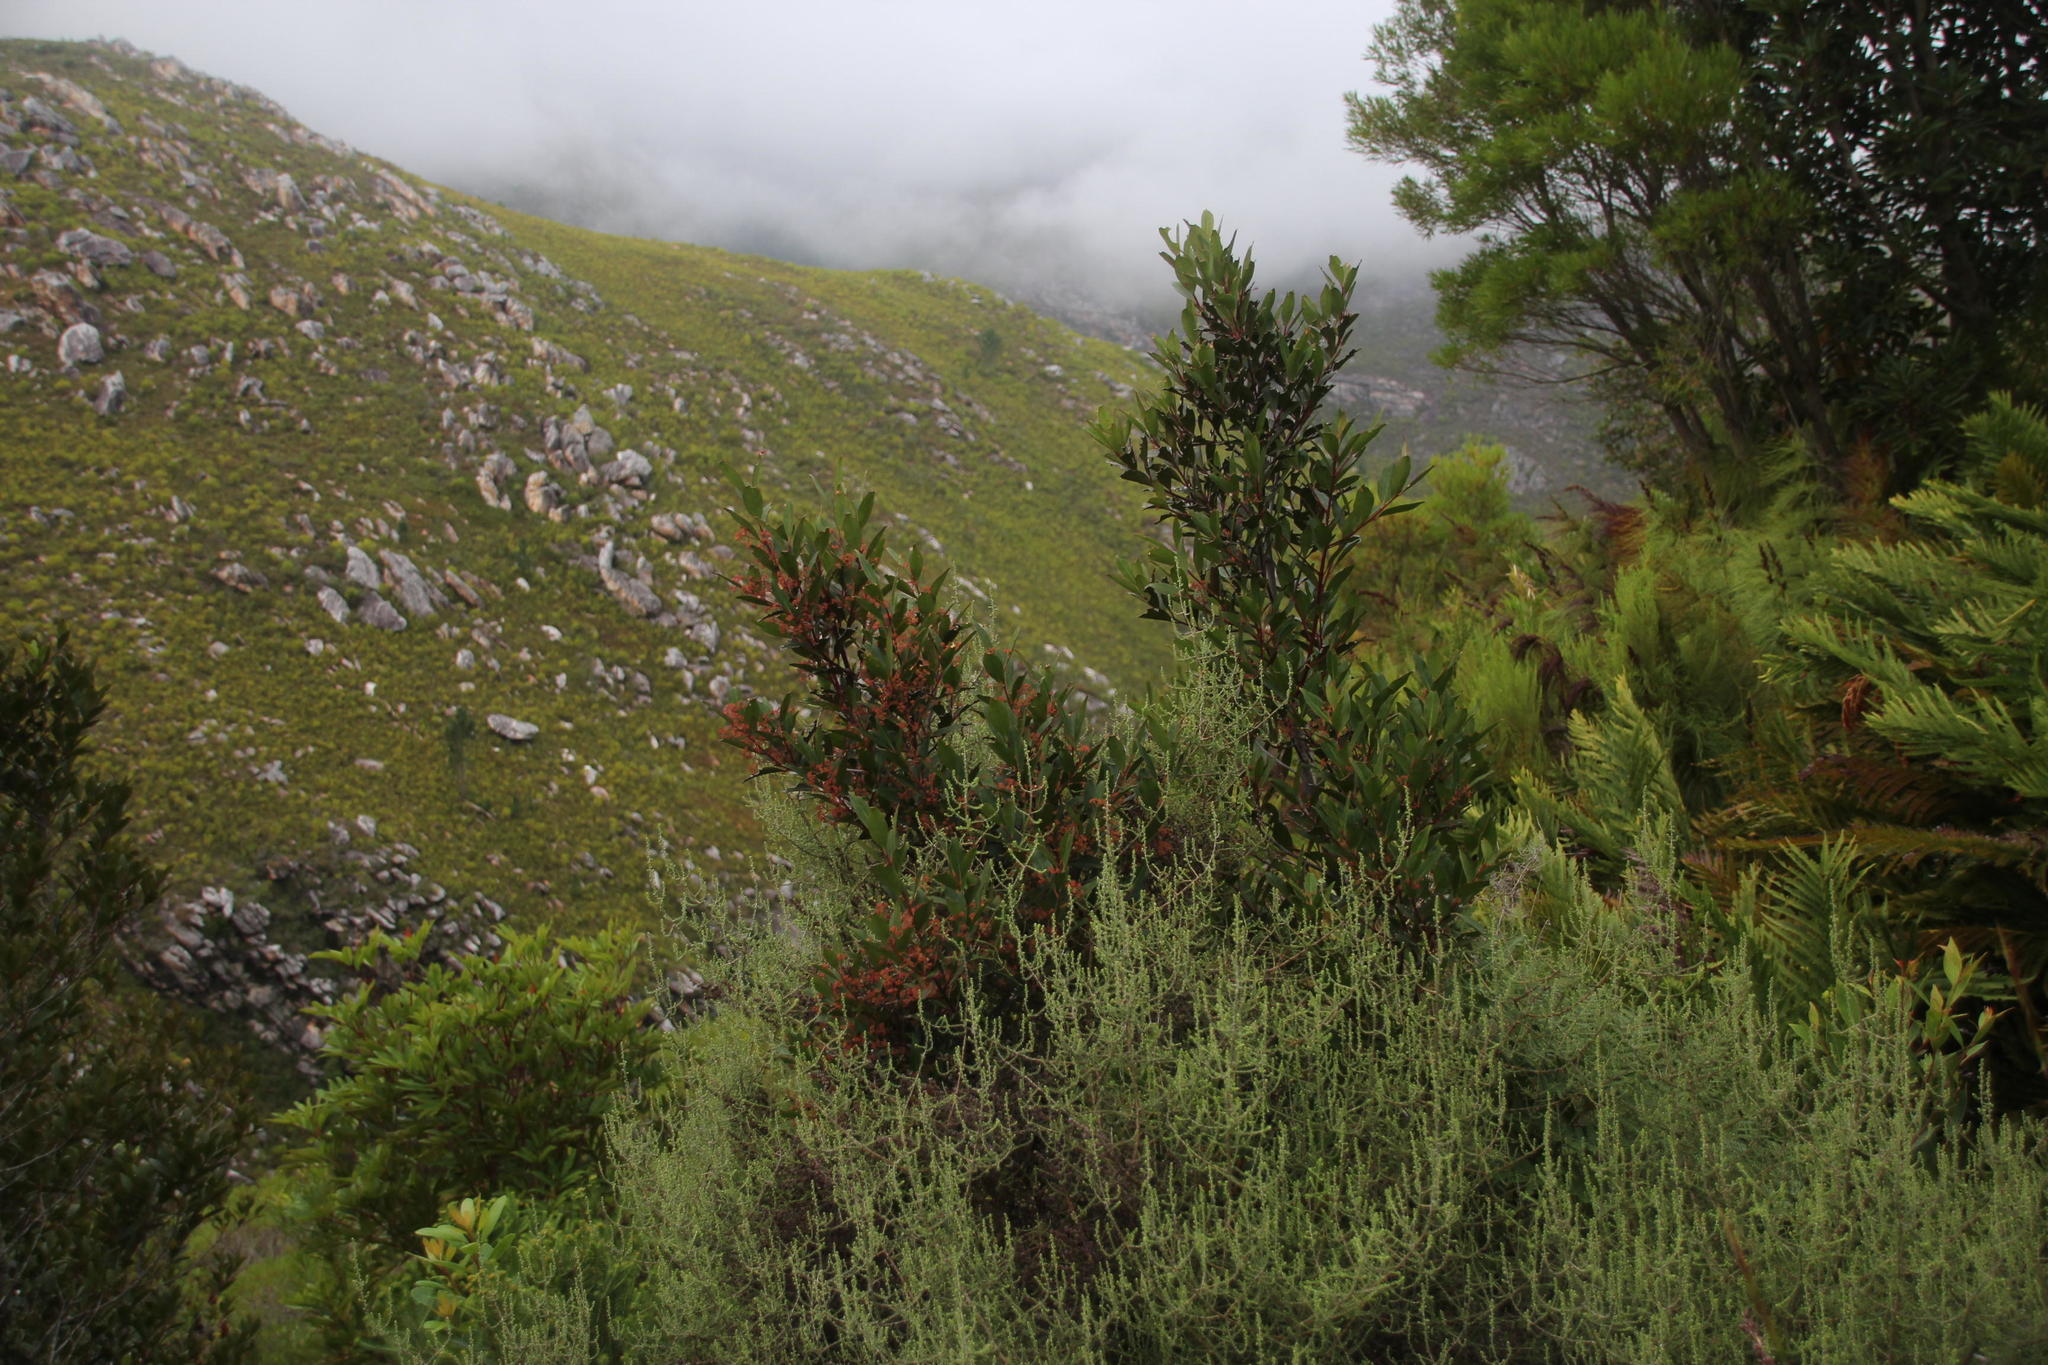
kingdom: Plantae
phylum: Tracheophyta
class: Magnoliopsida
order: Celastrales
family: Celastraceae
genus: Pterocelastrus
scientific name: Pterocelastrus rostratus
